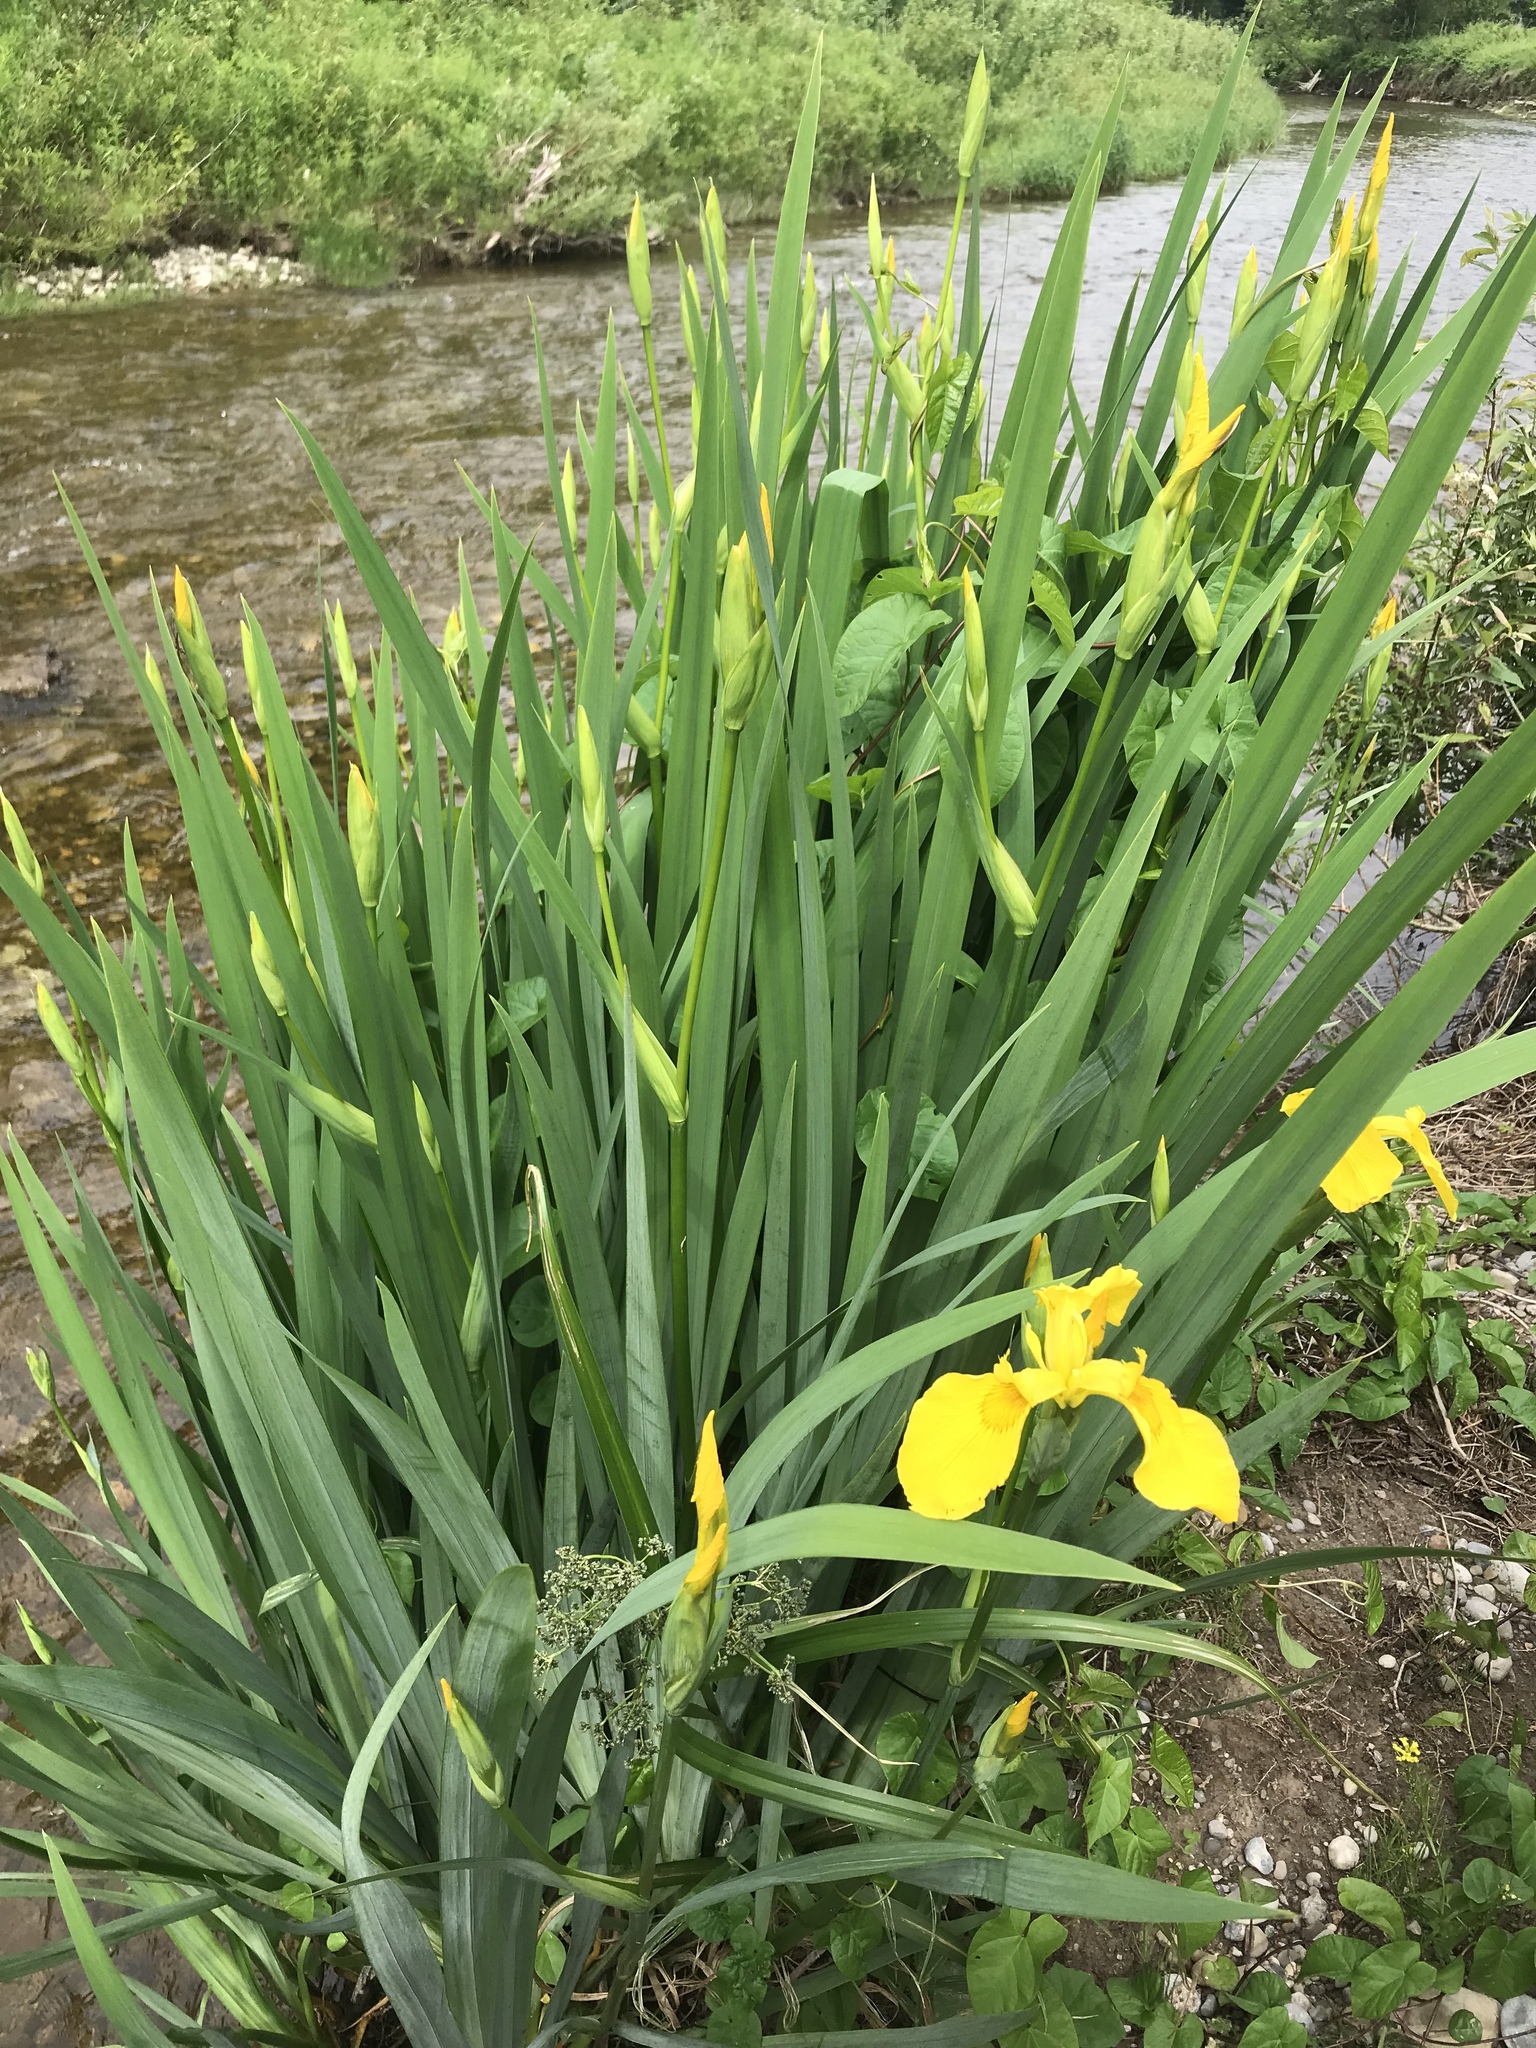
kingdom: Plantae
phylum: Tracheophyta
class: Liliopsida
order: Asparagales
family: Iridaceae
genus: Iris
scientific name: Iris pseudacorus
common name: Yellow flag
